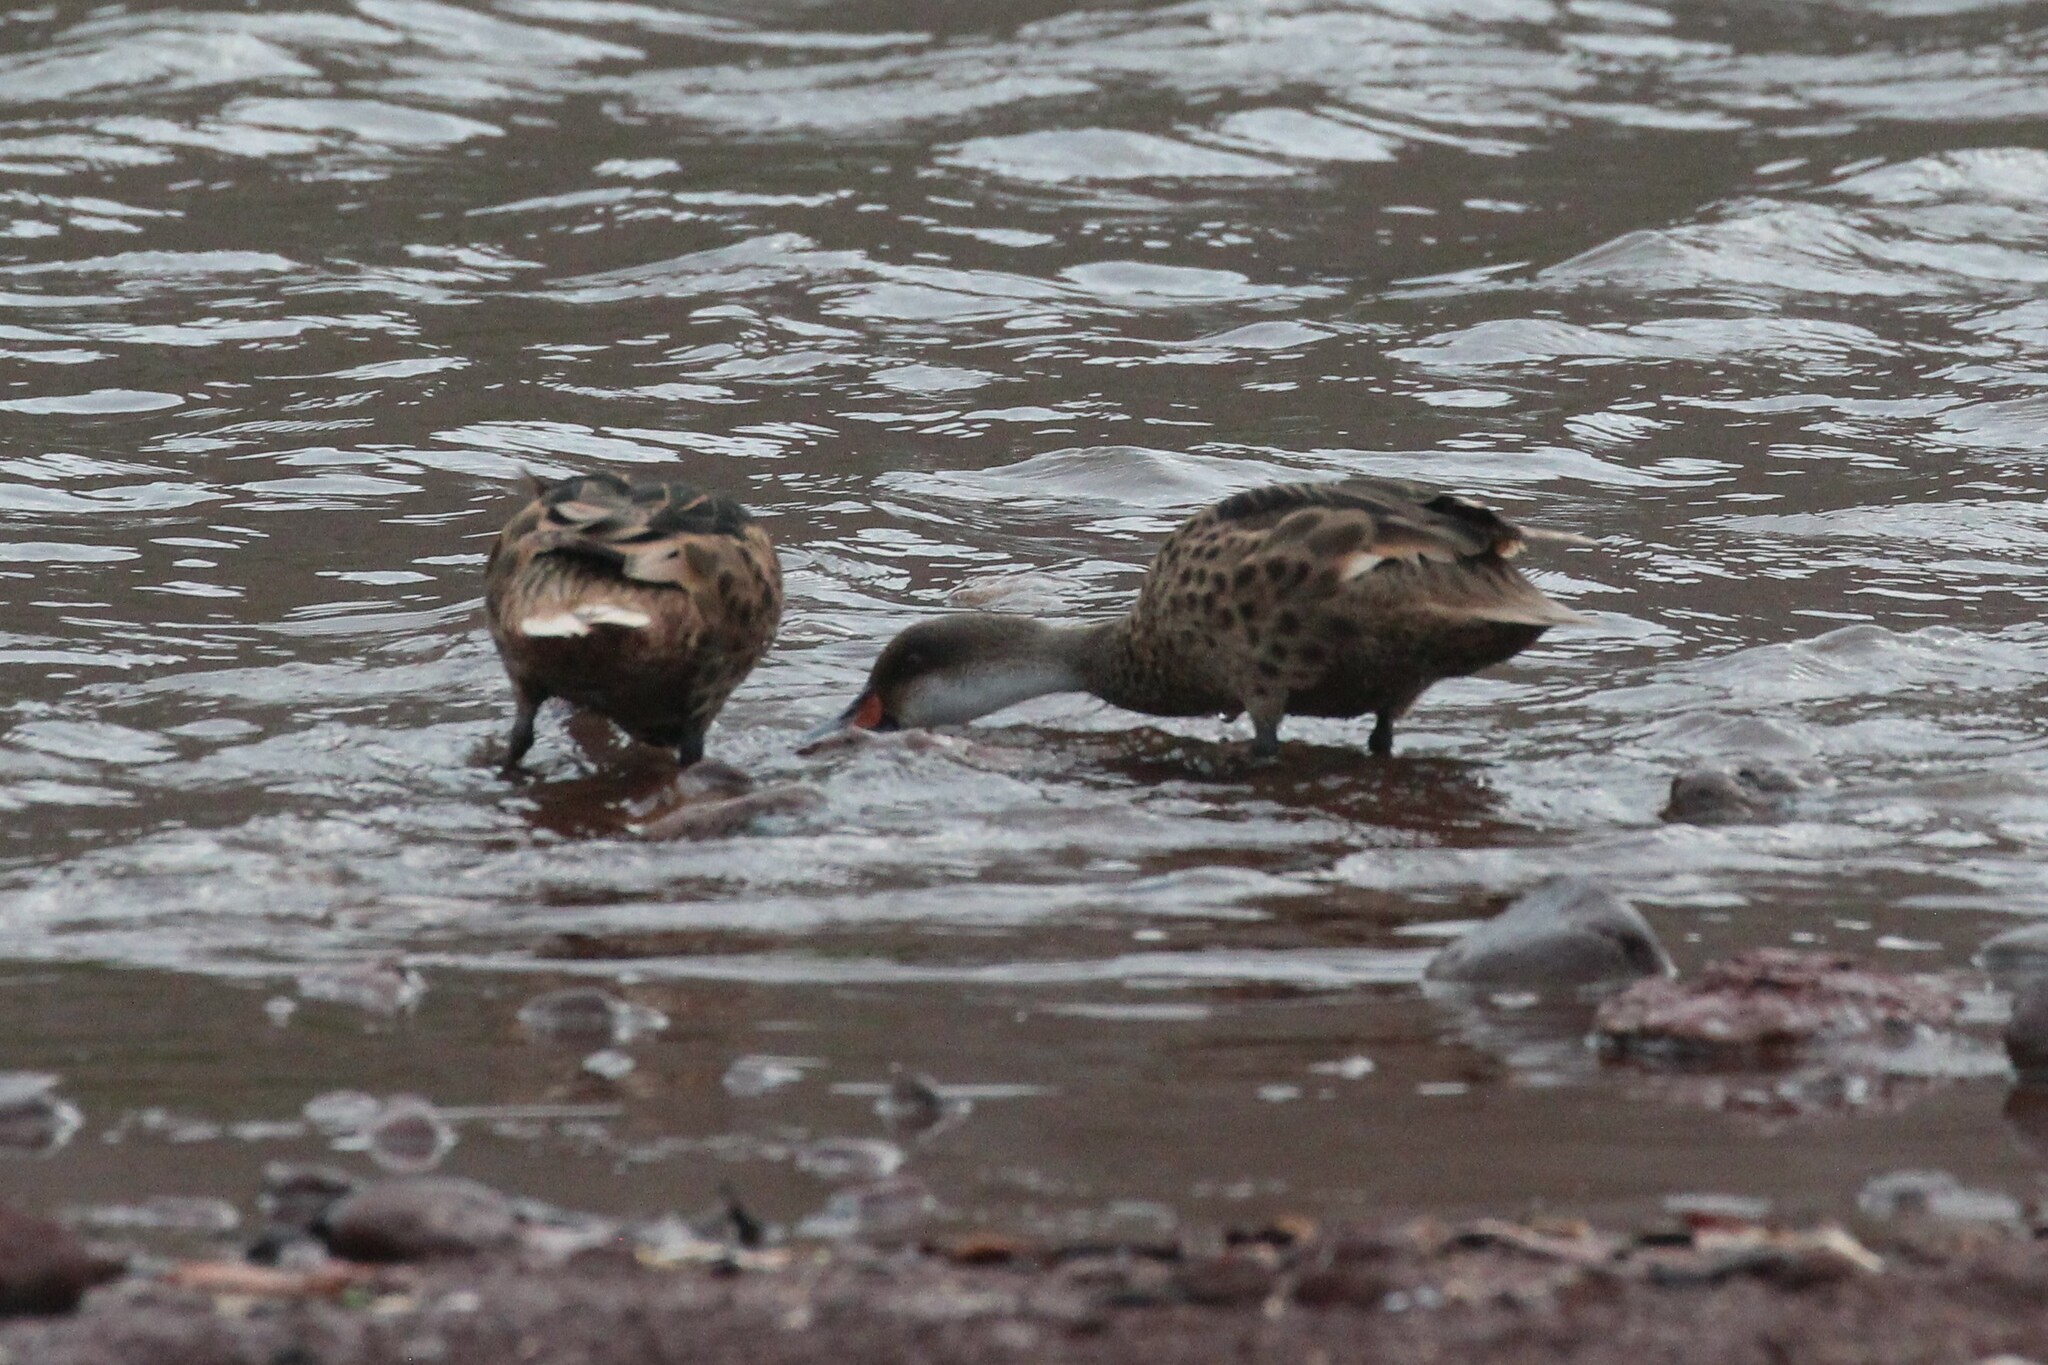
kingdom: Animalia
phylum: Chordata
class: Aves
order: Anseriformes
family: Anatidae
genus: Anas
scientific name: Anas bahamensis
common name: White-cheeked pintail
